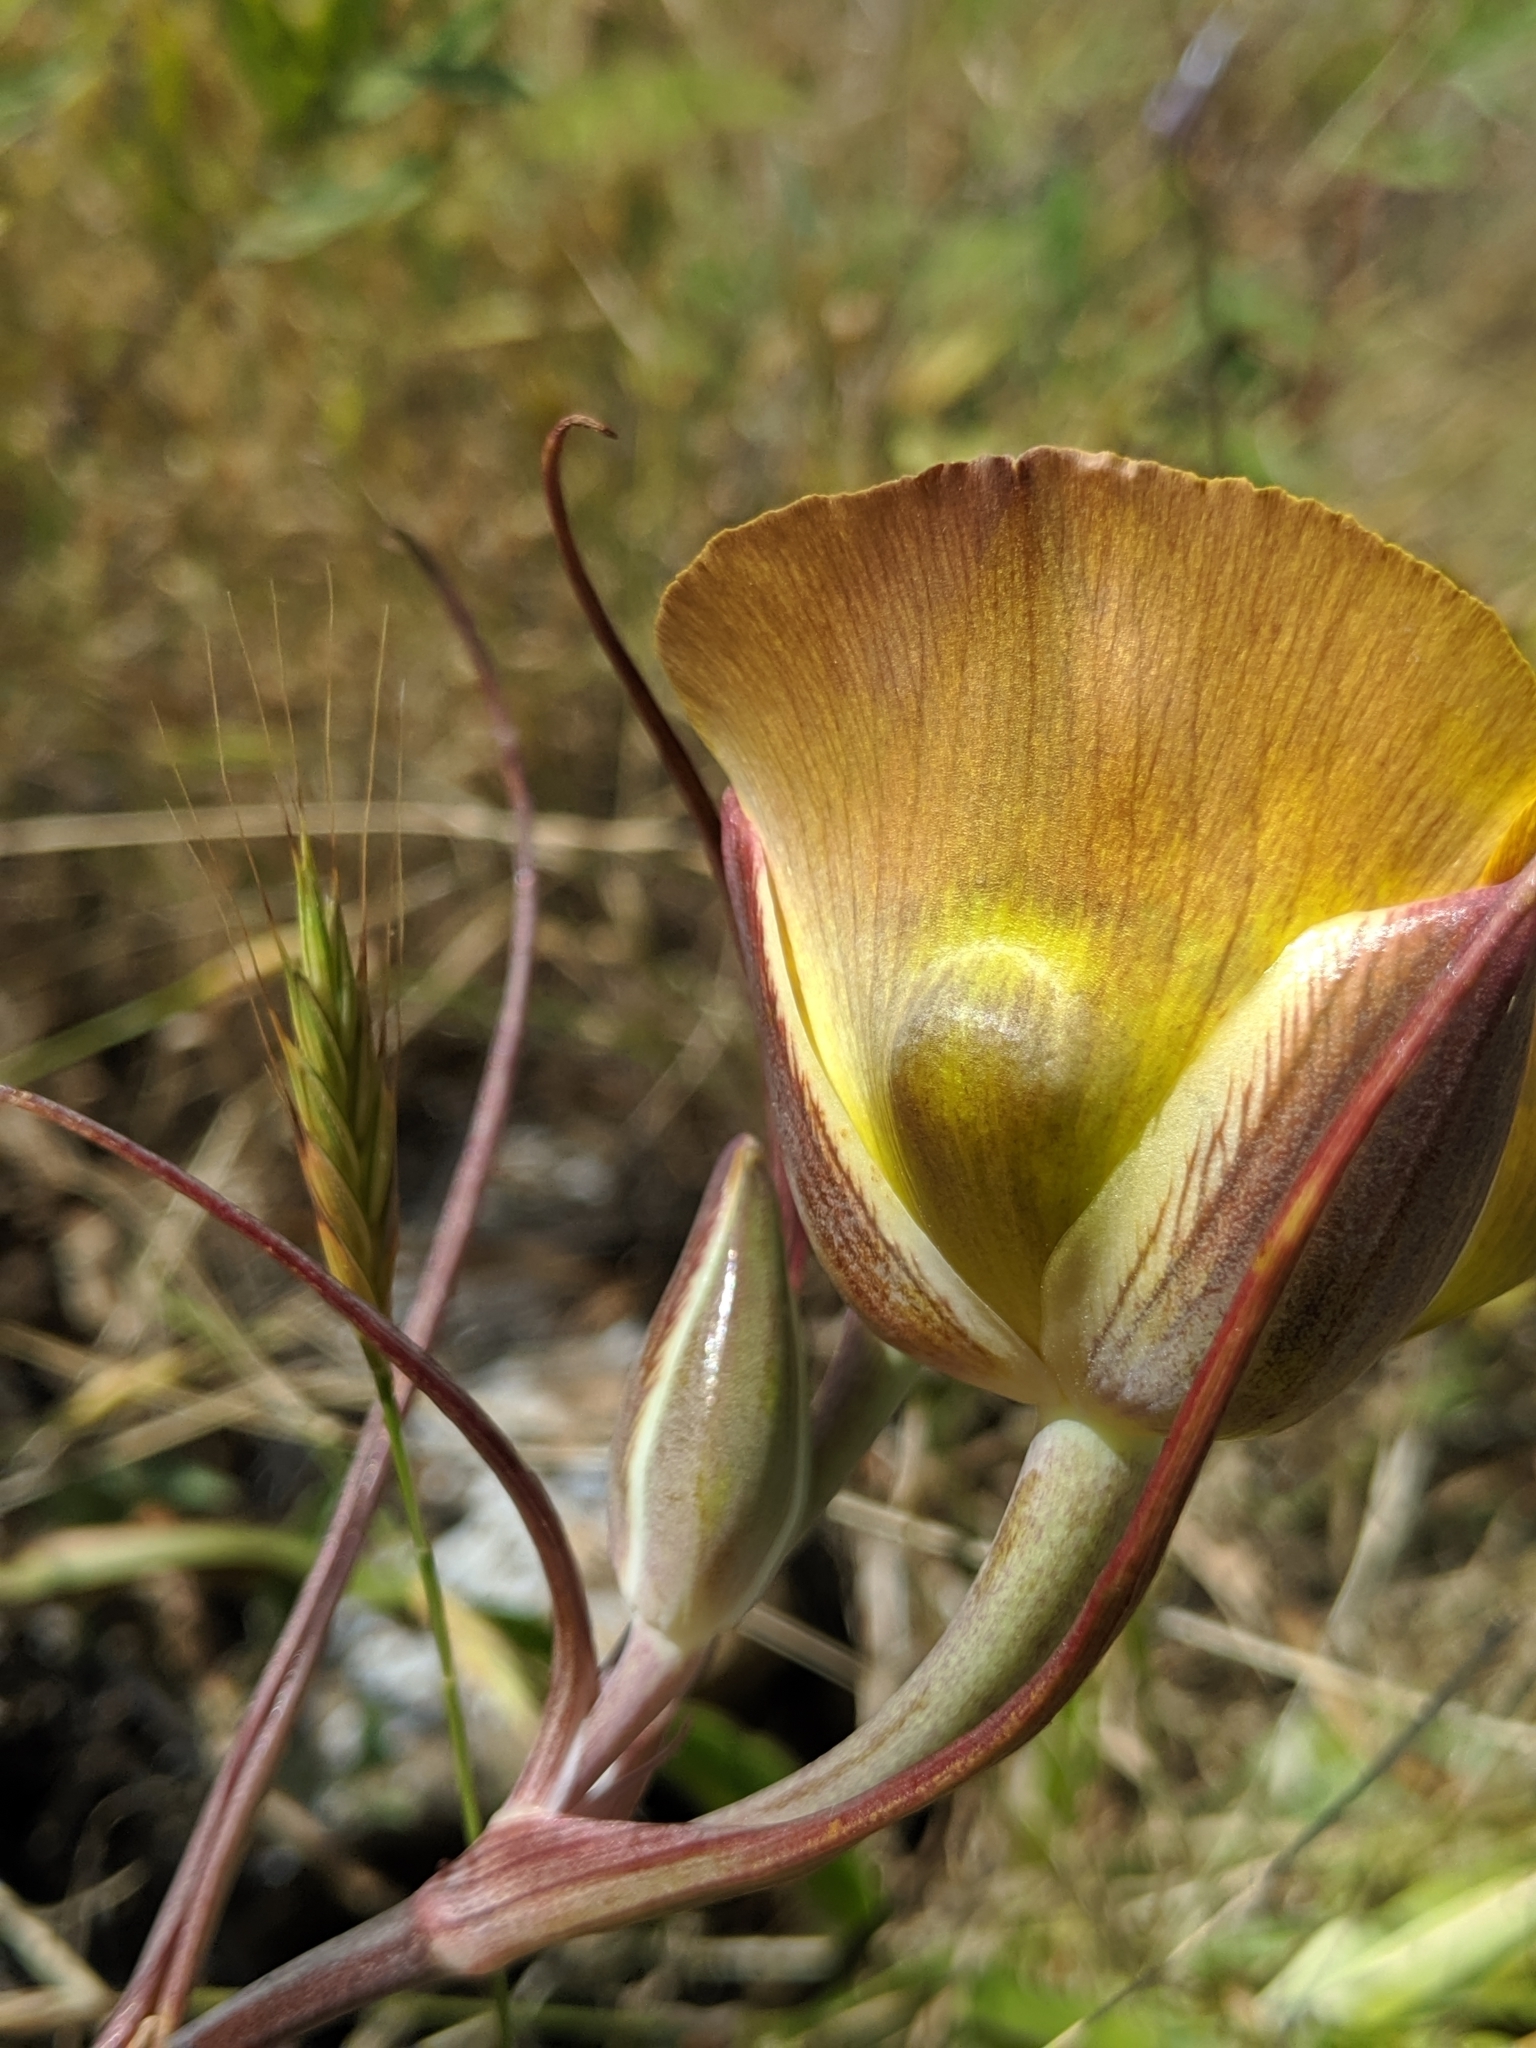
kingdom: Plantae
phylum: Tracheophyta
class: Liliopsida
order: Liliales
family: Liliaceae
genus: Calochortus
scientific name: Calochortus clavatus
